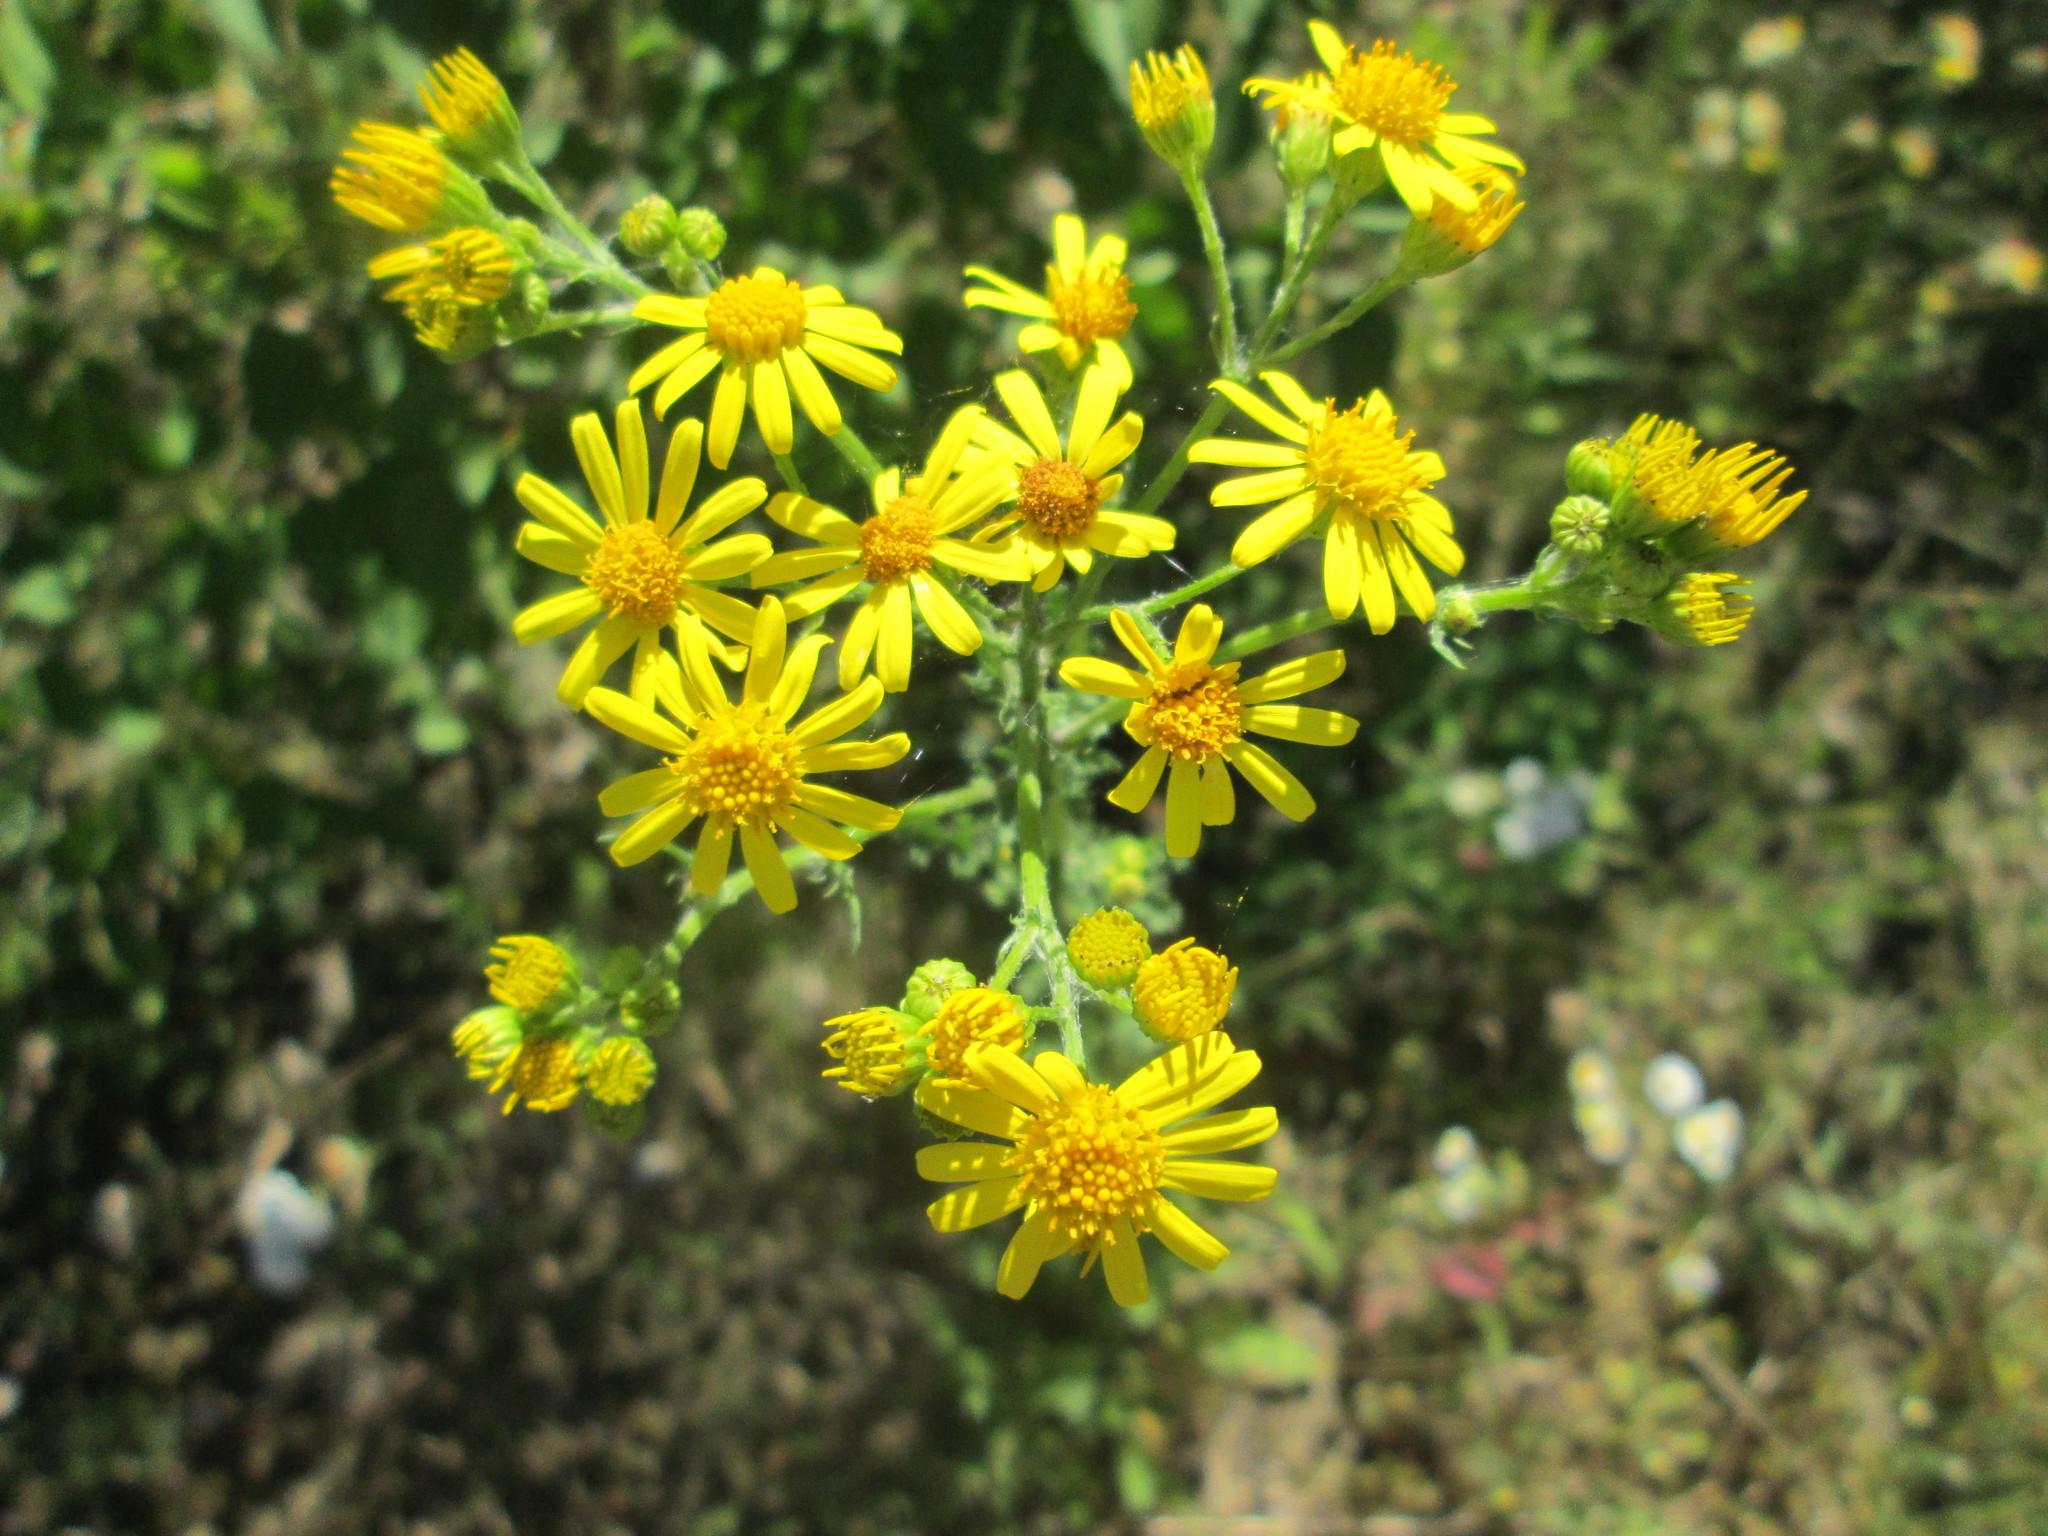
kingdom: Plantae
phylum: Tracheophyta
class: Magnoliopsida
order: Asterales
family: Asteraceae
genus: Jacobaea
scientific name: Jacobaea vulgaris
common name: Stinking willie
